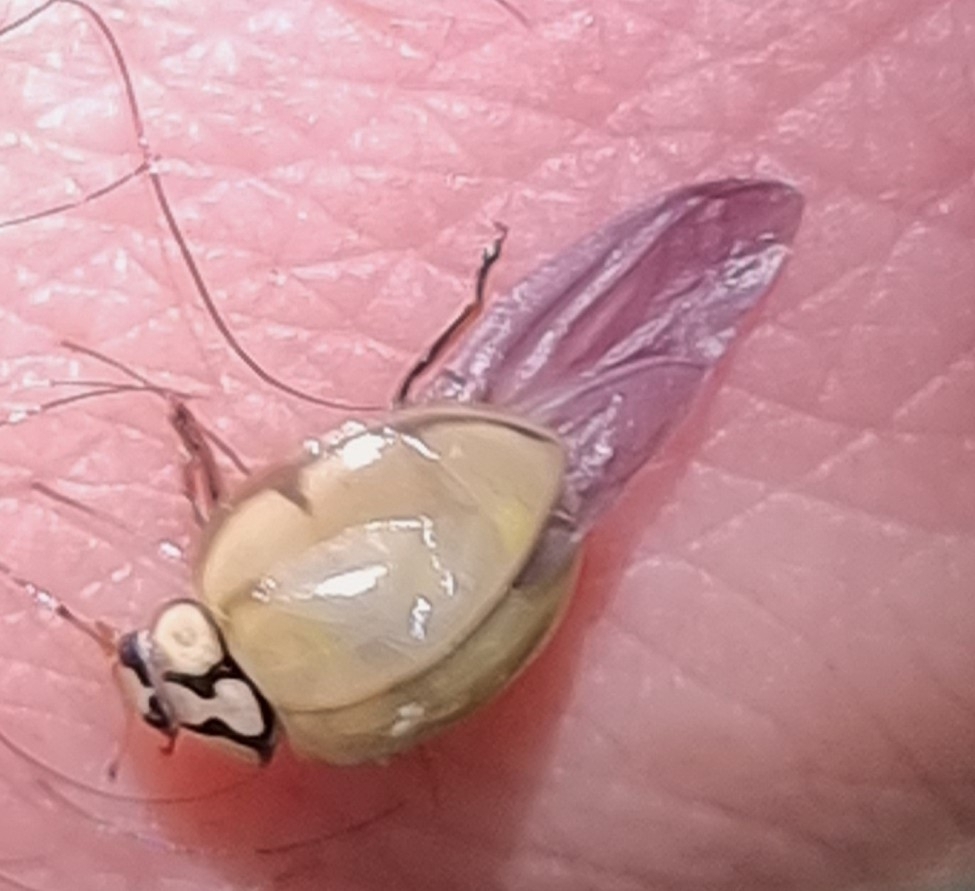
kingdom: Animalia
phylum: Arthropoda
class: Insecta
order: Coleoptera
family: Coccinellidae
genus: Harmonia
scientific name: Harmonia
